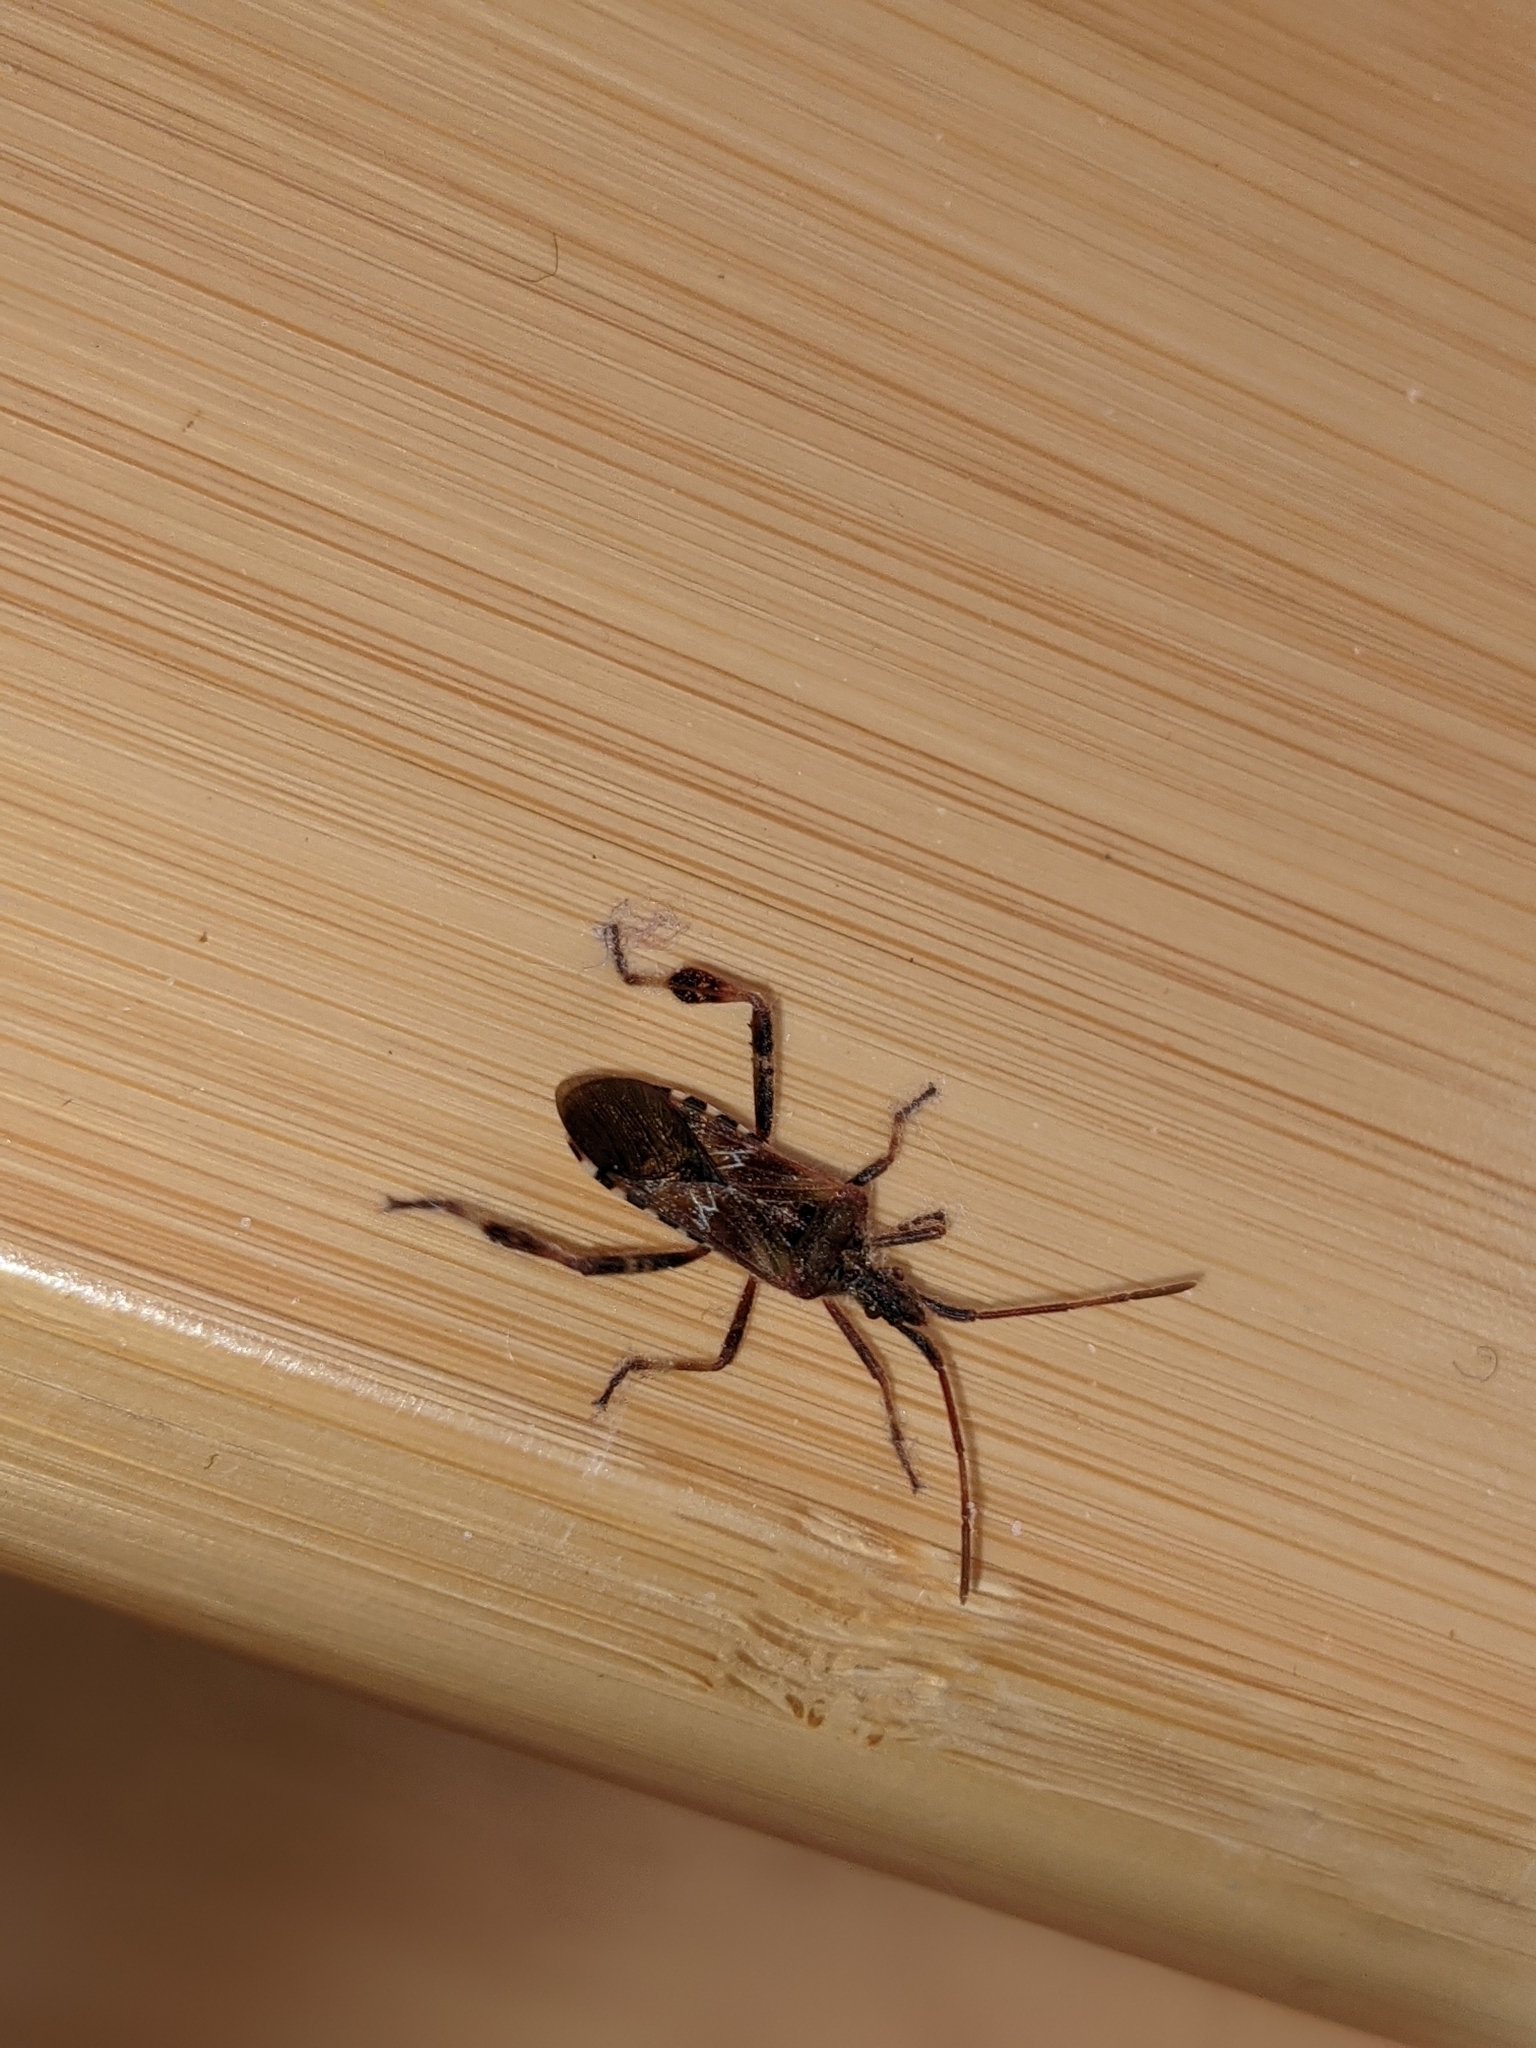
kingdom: Animalia
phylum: Arthropoda
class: Insecta
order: Hemiptera
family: Coreidae
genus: Leptoglossus
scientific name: Leptoglossus occidentalis
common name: Western conifer-seed bug
